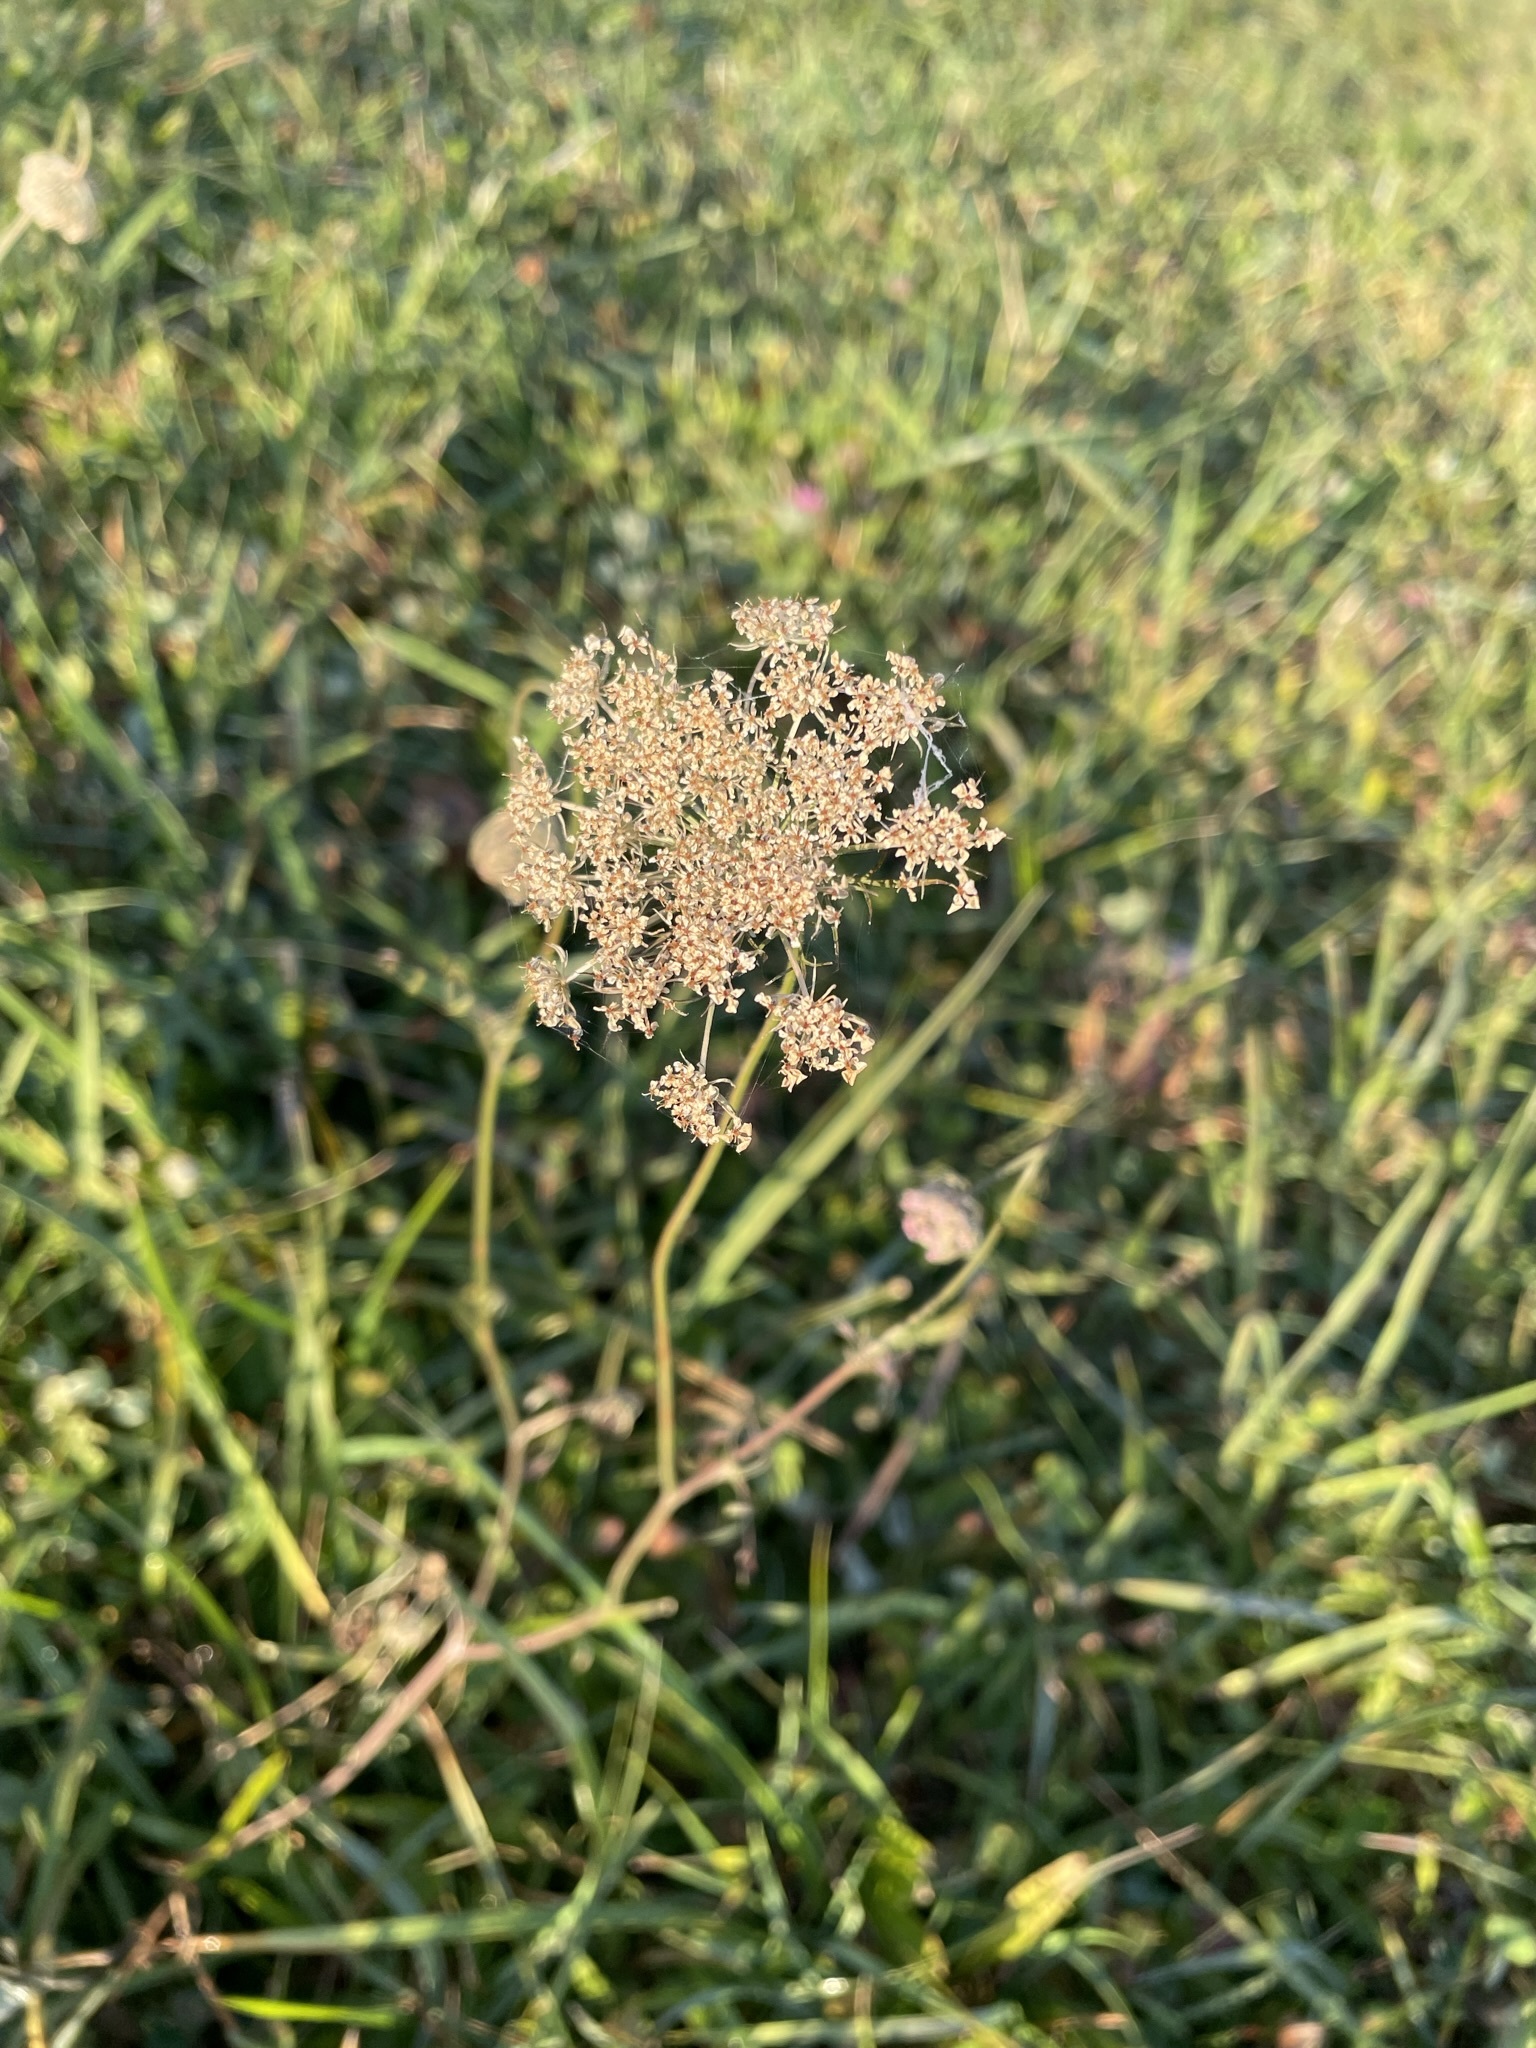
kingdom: Plantae
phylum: Tracheophyta
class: Magnoliopsida
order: Apiales
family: Apiaceae
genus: Daucus
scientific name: Daucus carota
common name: Wild carrot
